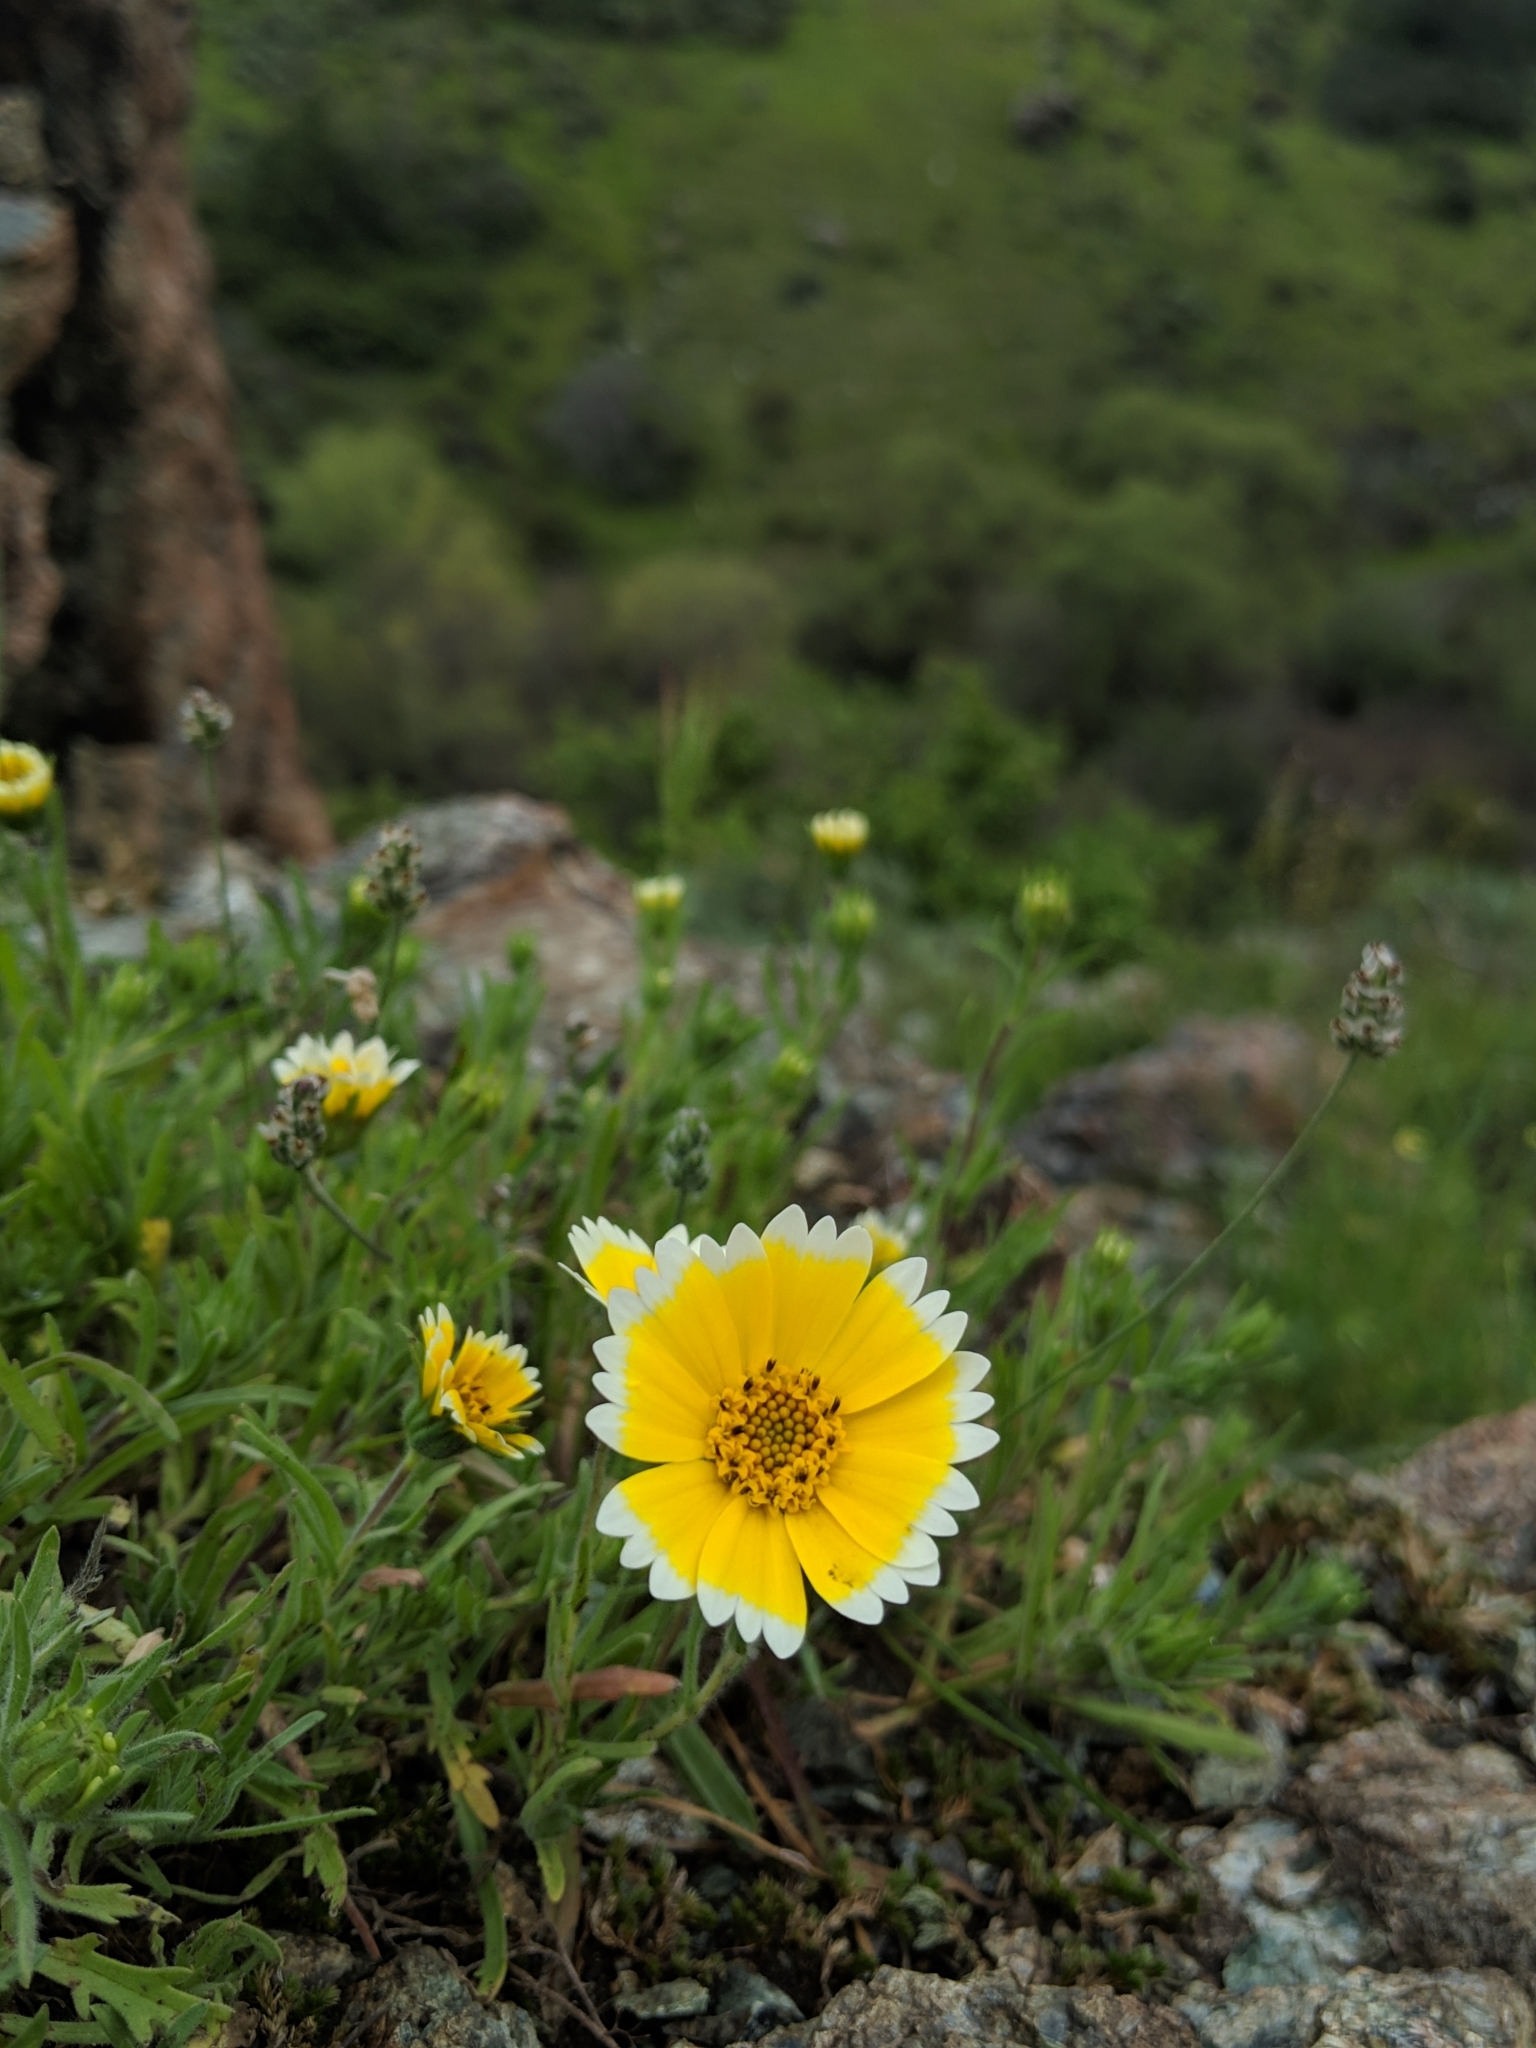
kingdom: Plantae
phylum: Tracheophyta
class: Magnoliopsida
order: Asterales
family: Asteraceae
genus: Layia
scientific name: Layia platyglossa
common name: Tidy-tips
